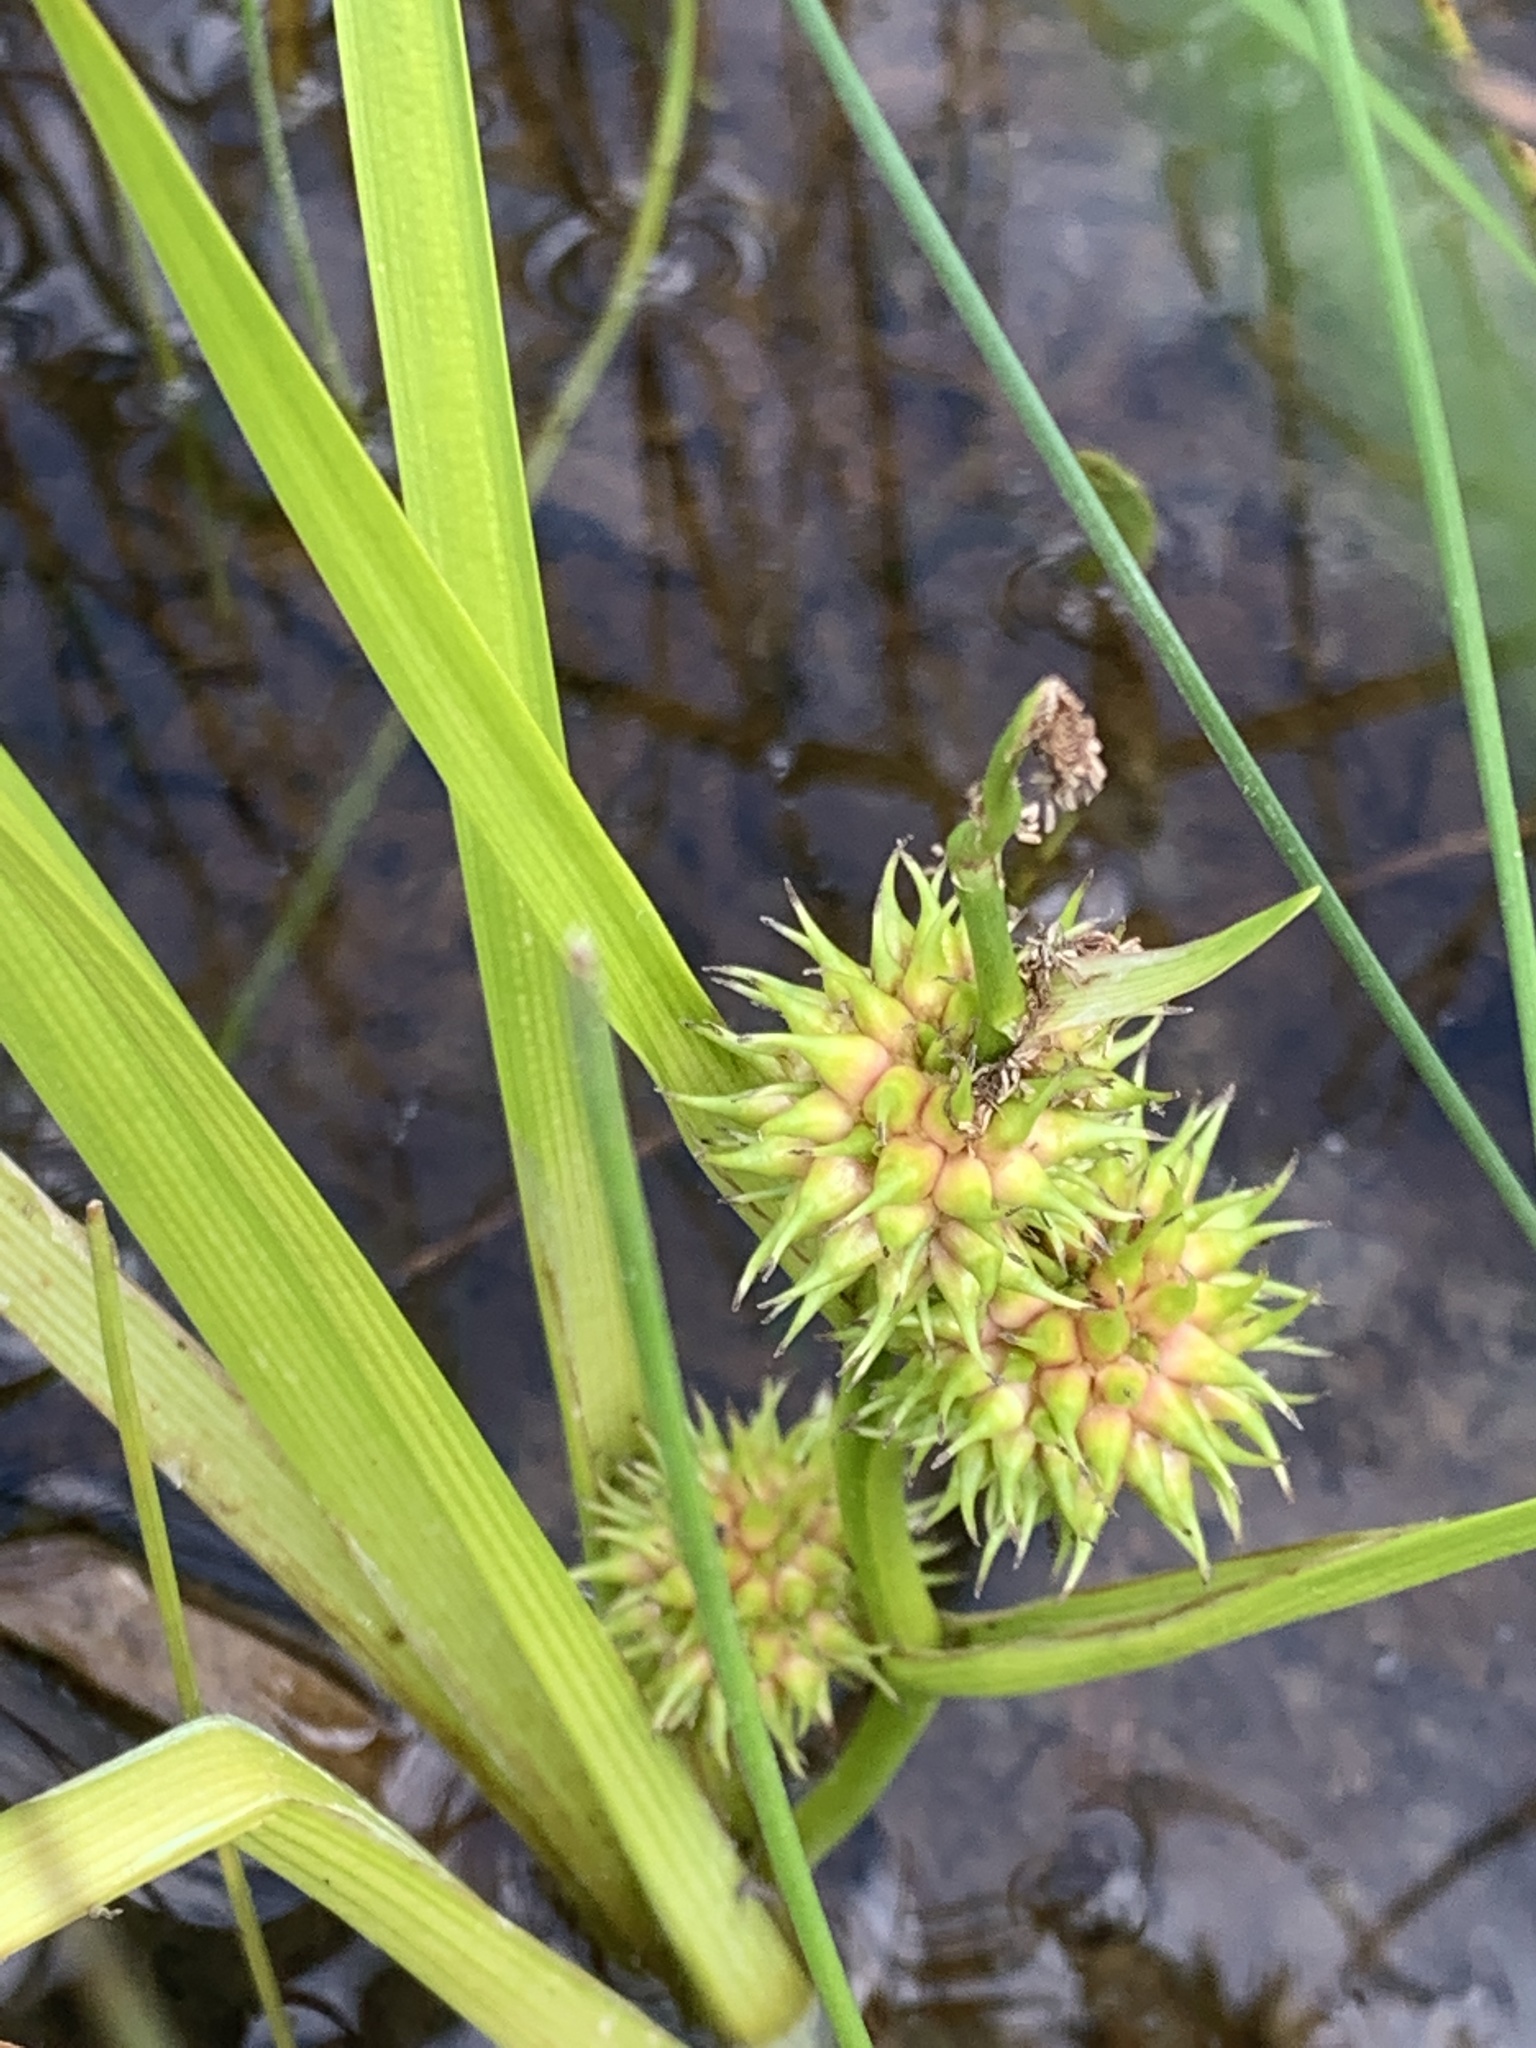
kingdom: Plantae
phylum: Tracheophyta
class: Liliopsida
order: Poales
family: Typhaceae
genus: Sparganium
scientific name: Sparganium emersum
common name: Unbranched bur-reed
